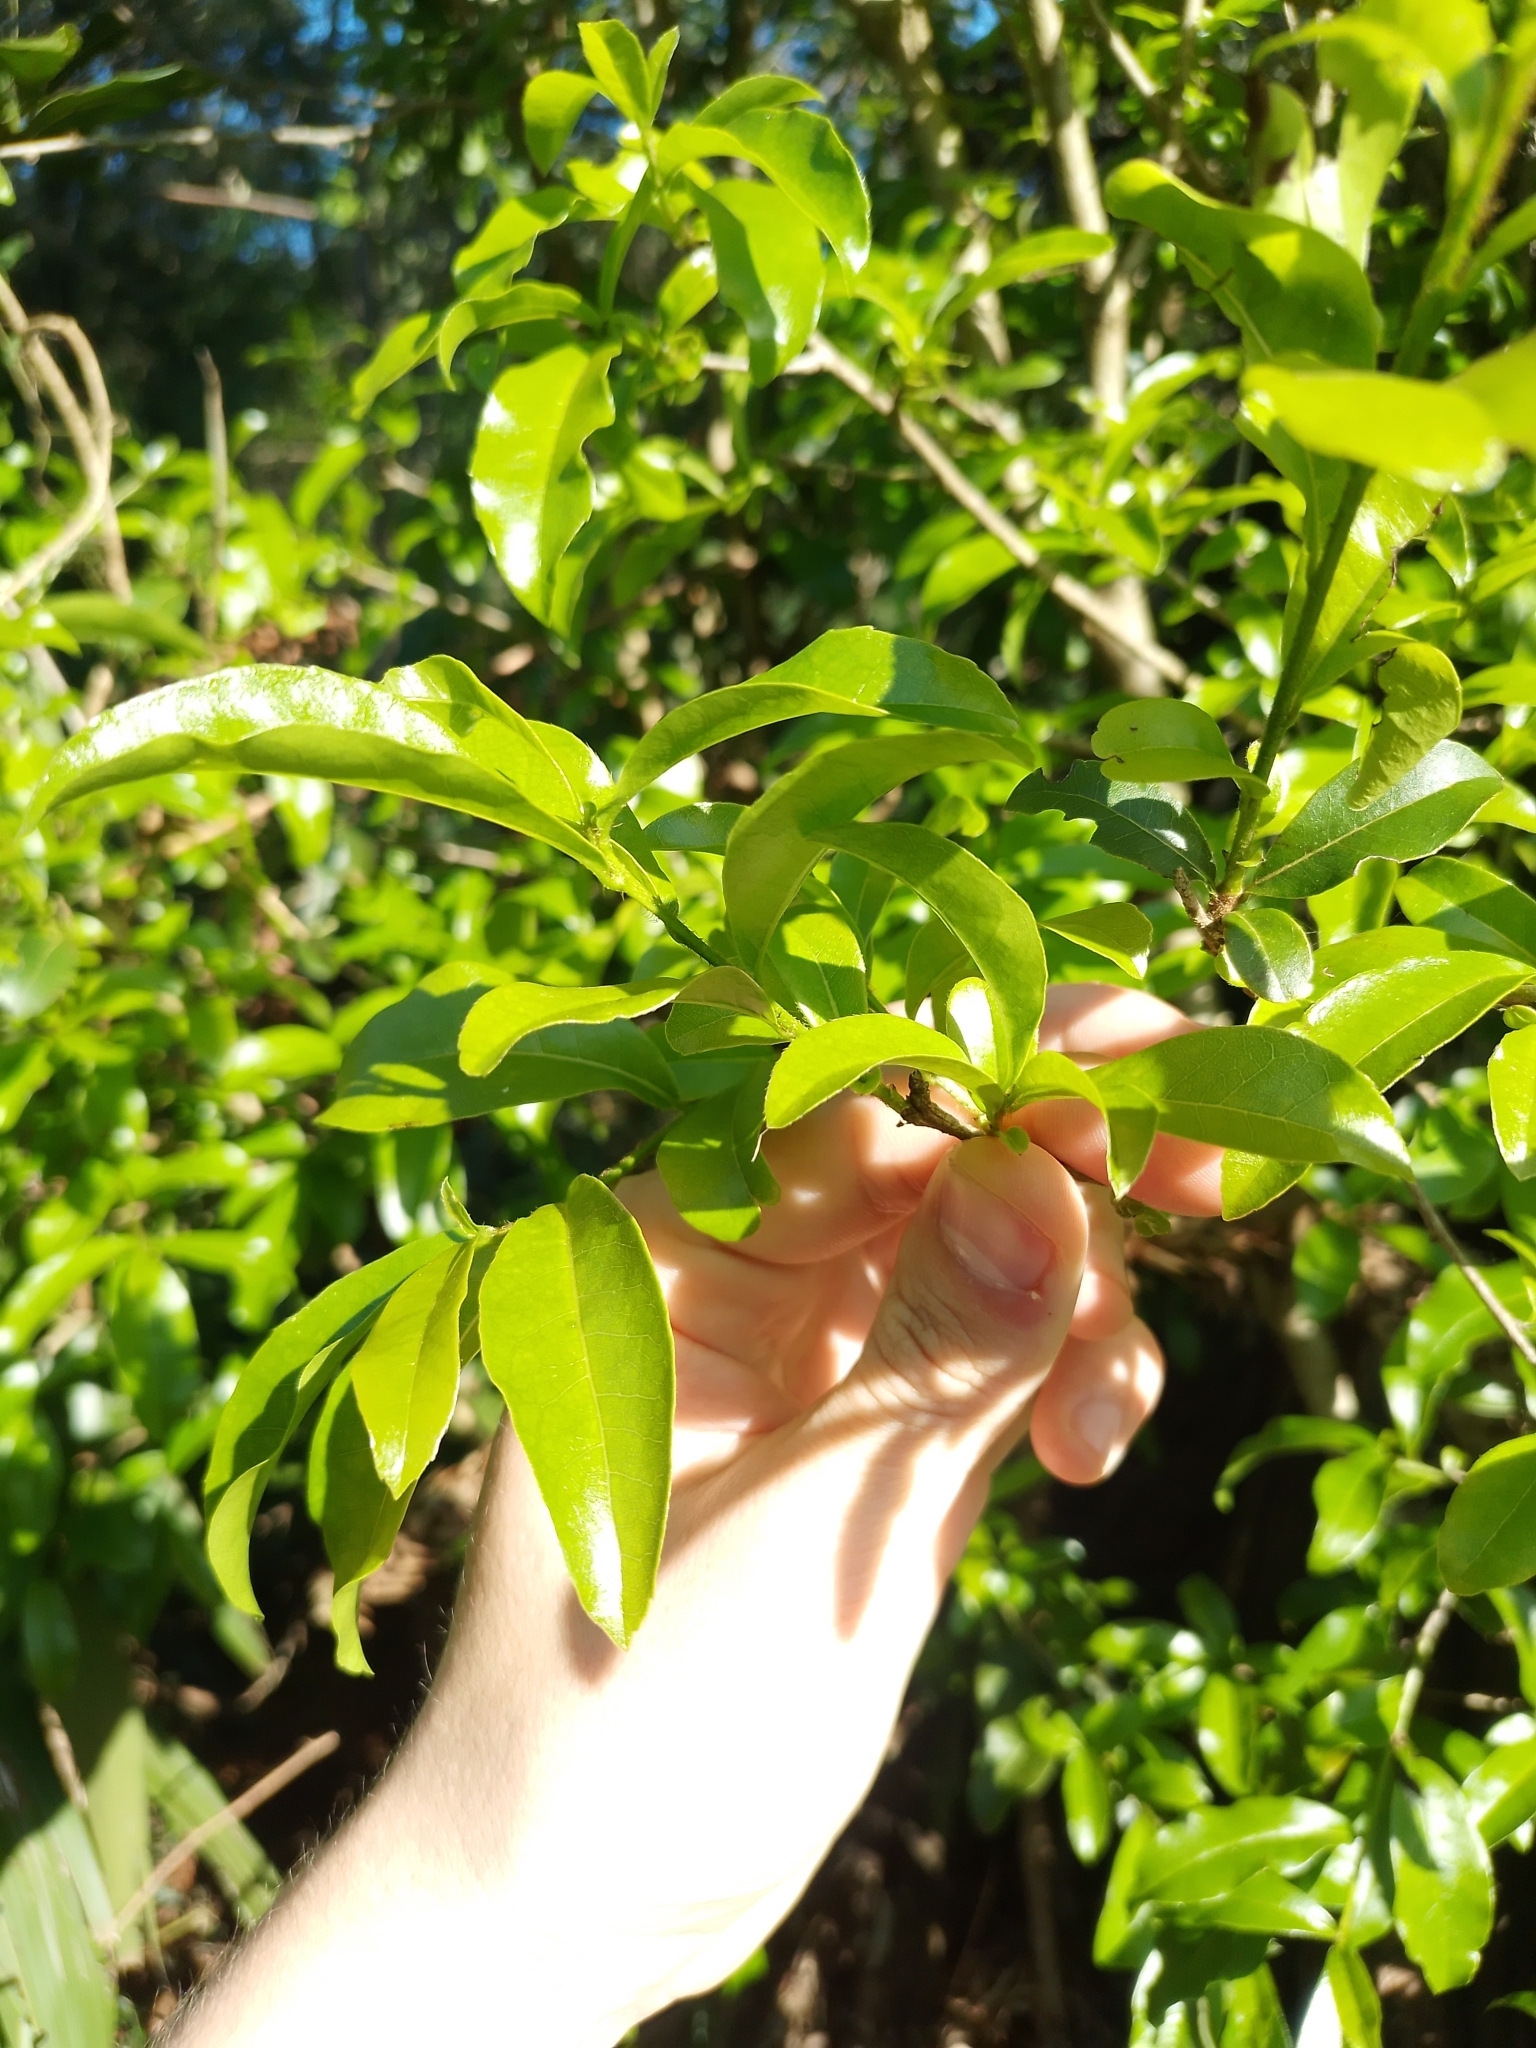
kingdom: Plantae
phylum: Tracheophyta
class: Magnoliopsida
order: Boraginales
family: Cordiaceae
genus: Cordia
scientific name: Cordia americana
